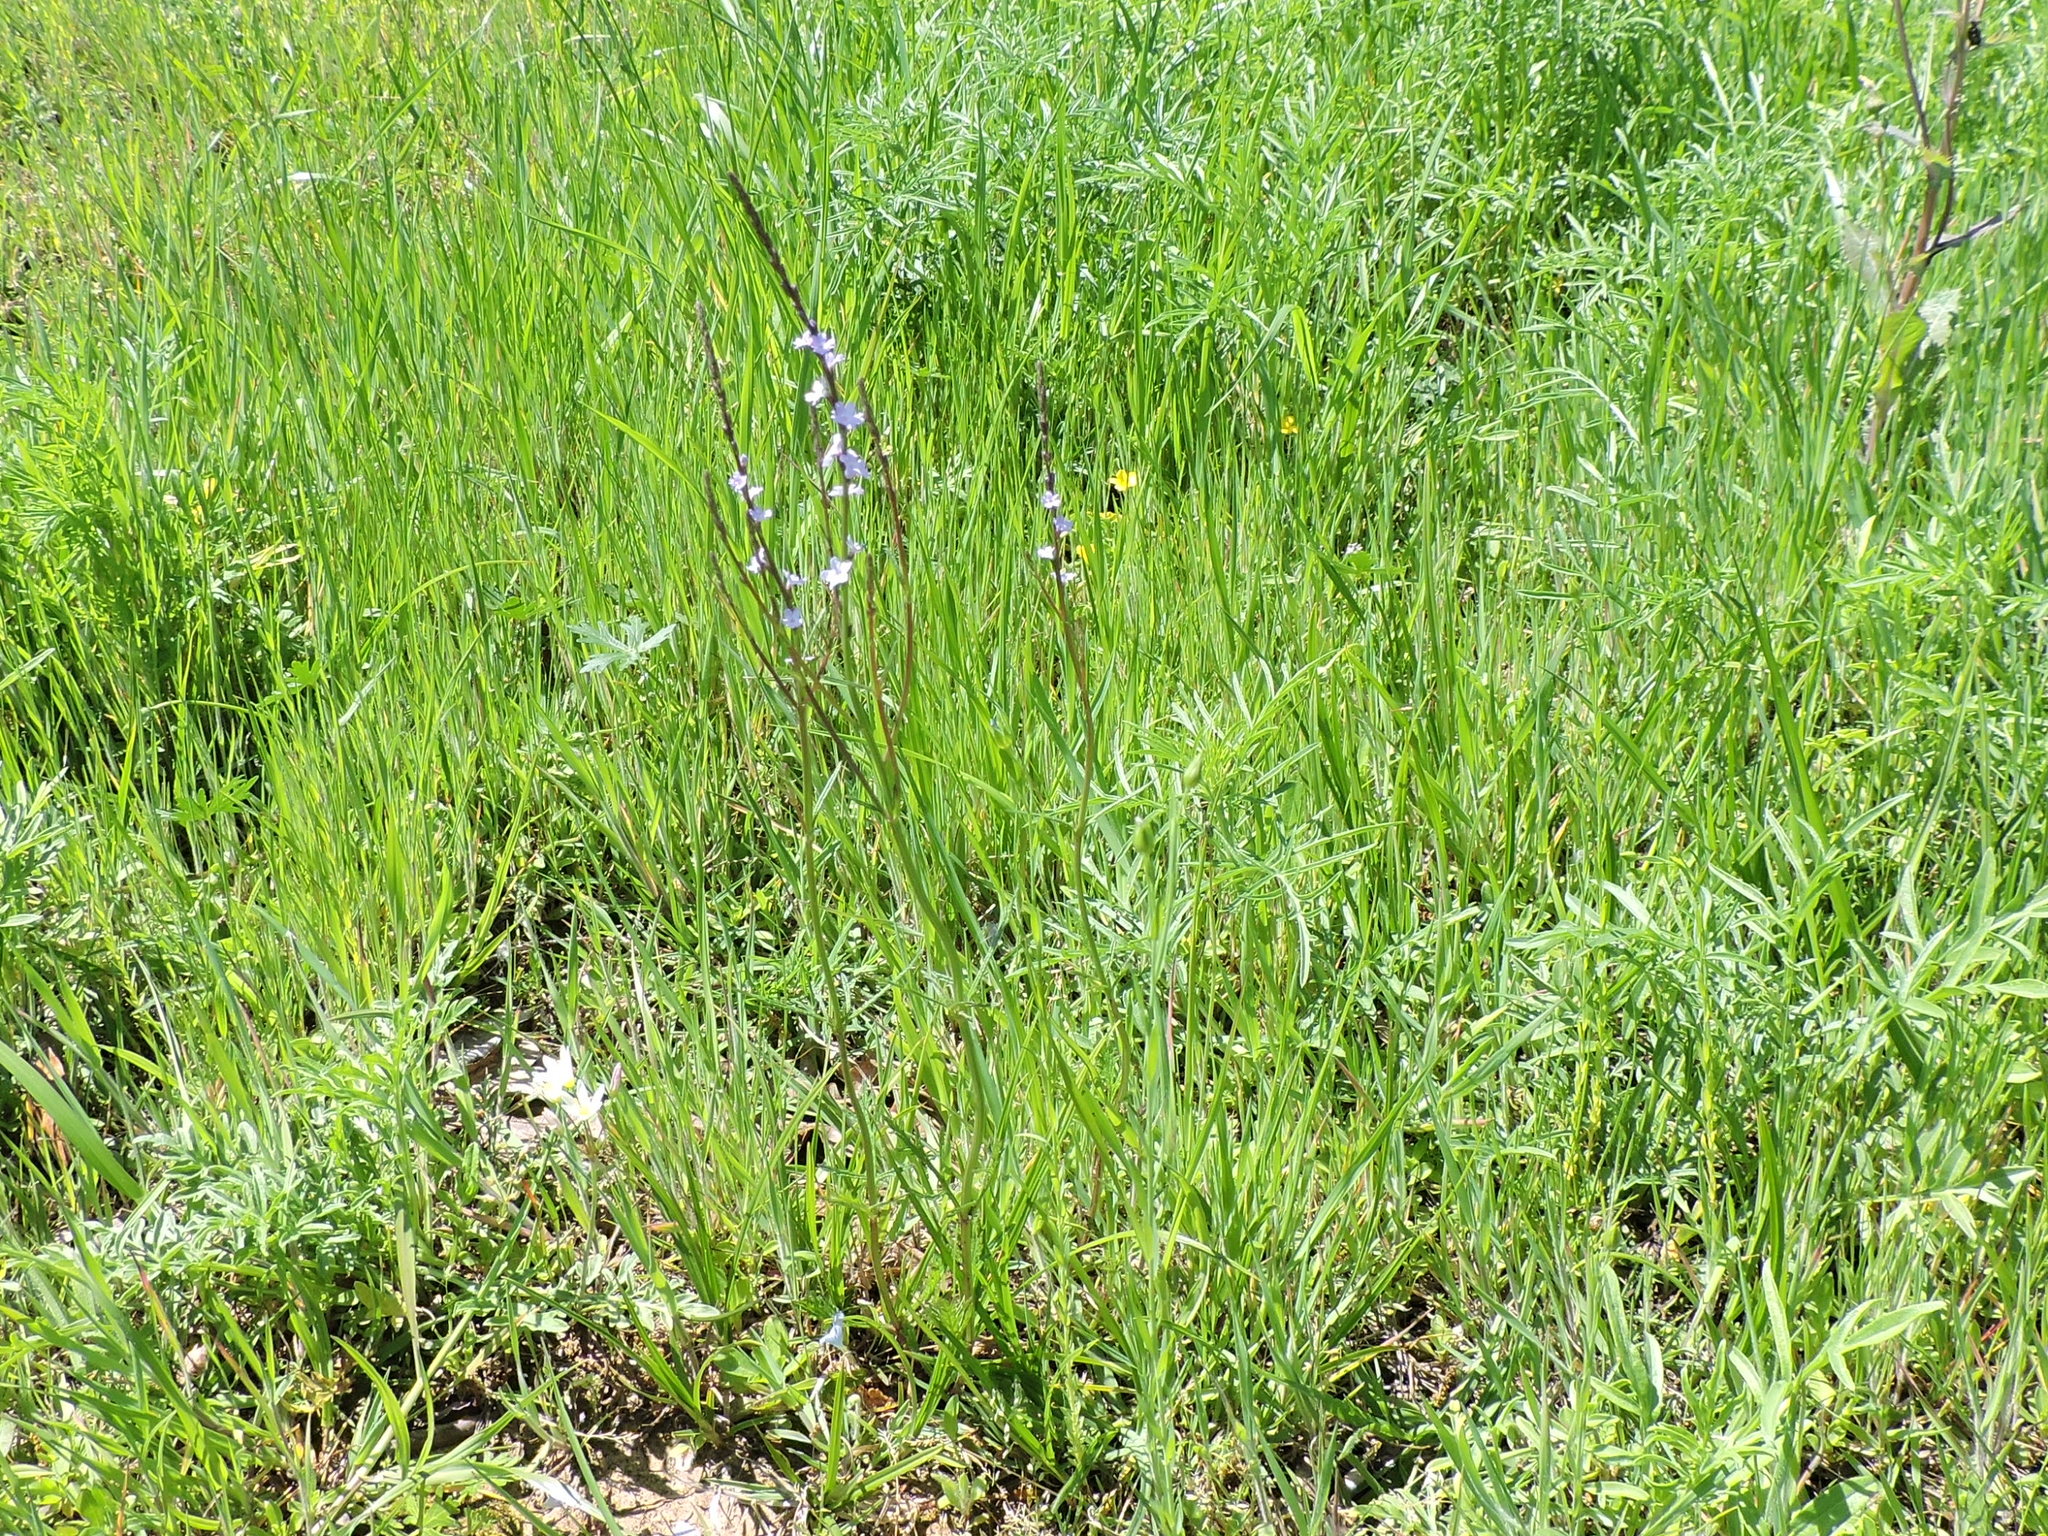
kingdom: Plantae
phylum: Tracheophyta
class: Magnoliopsida
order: Lamiales
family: Verbenaceae
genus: Verbena
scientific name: Verbena halei
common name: Texas vervain
